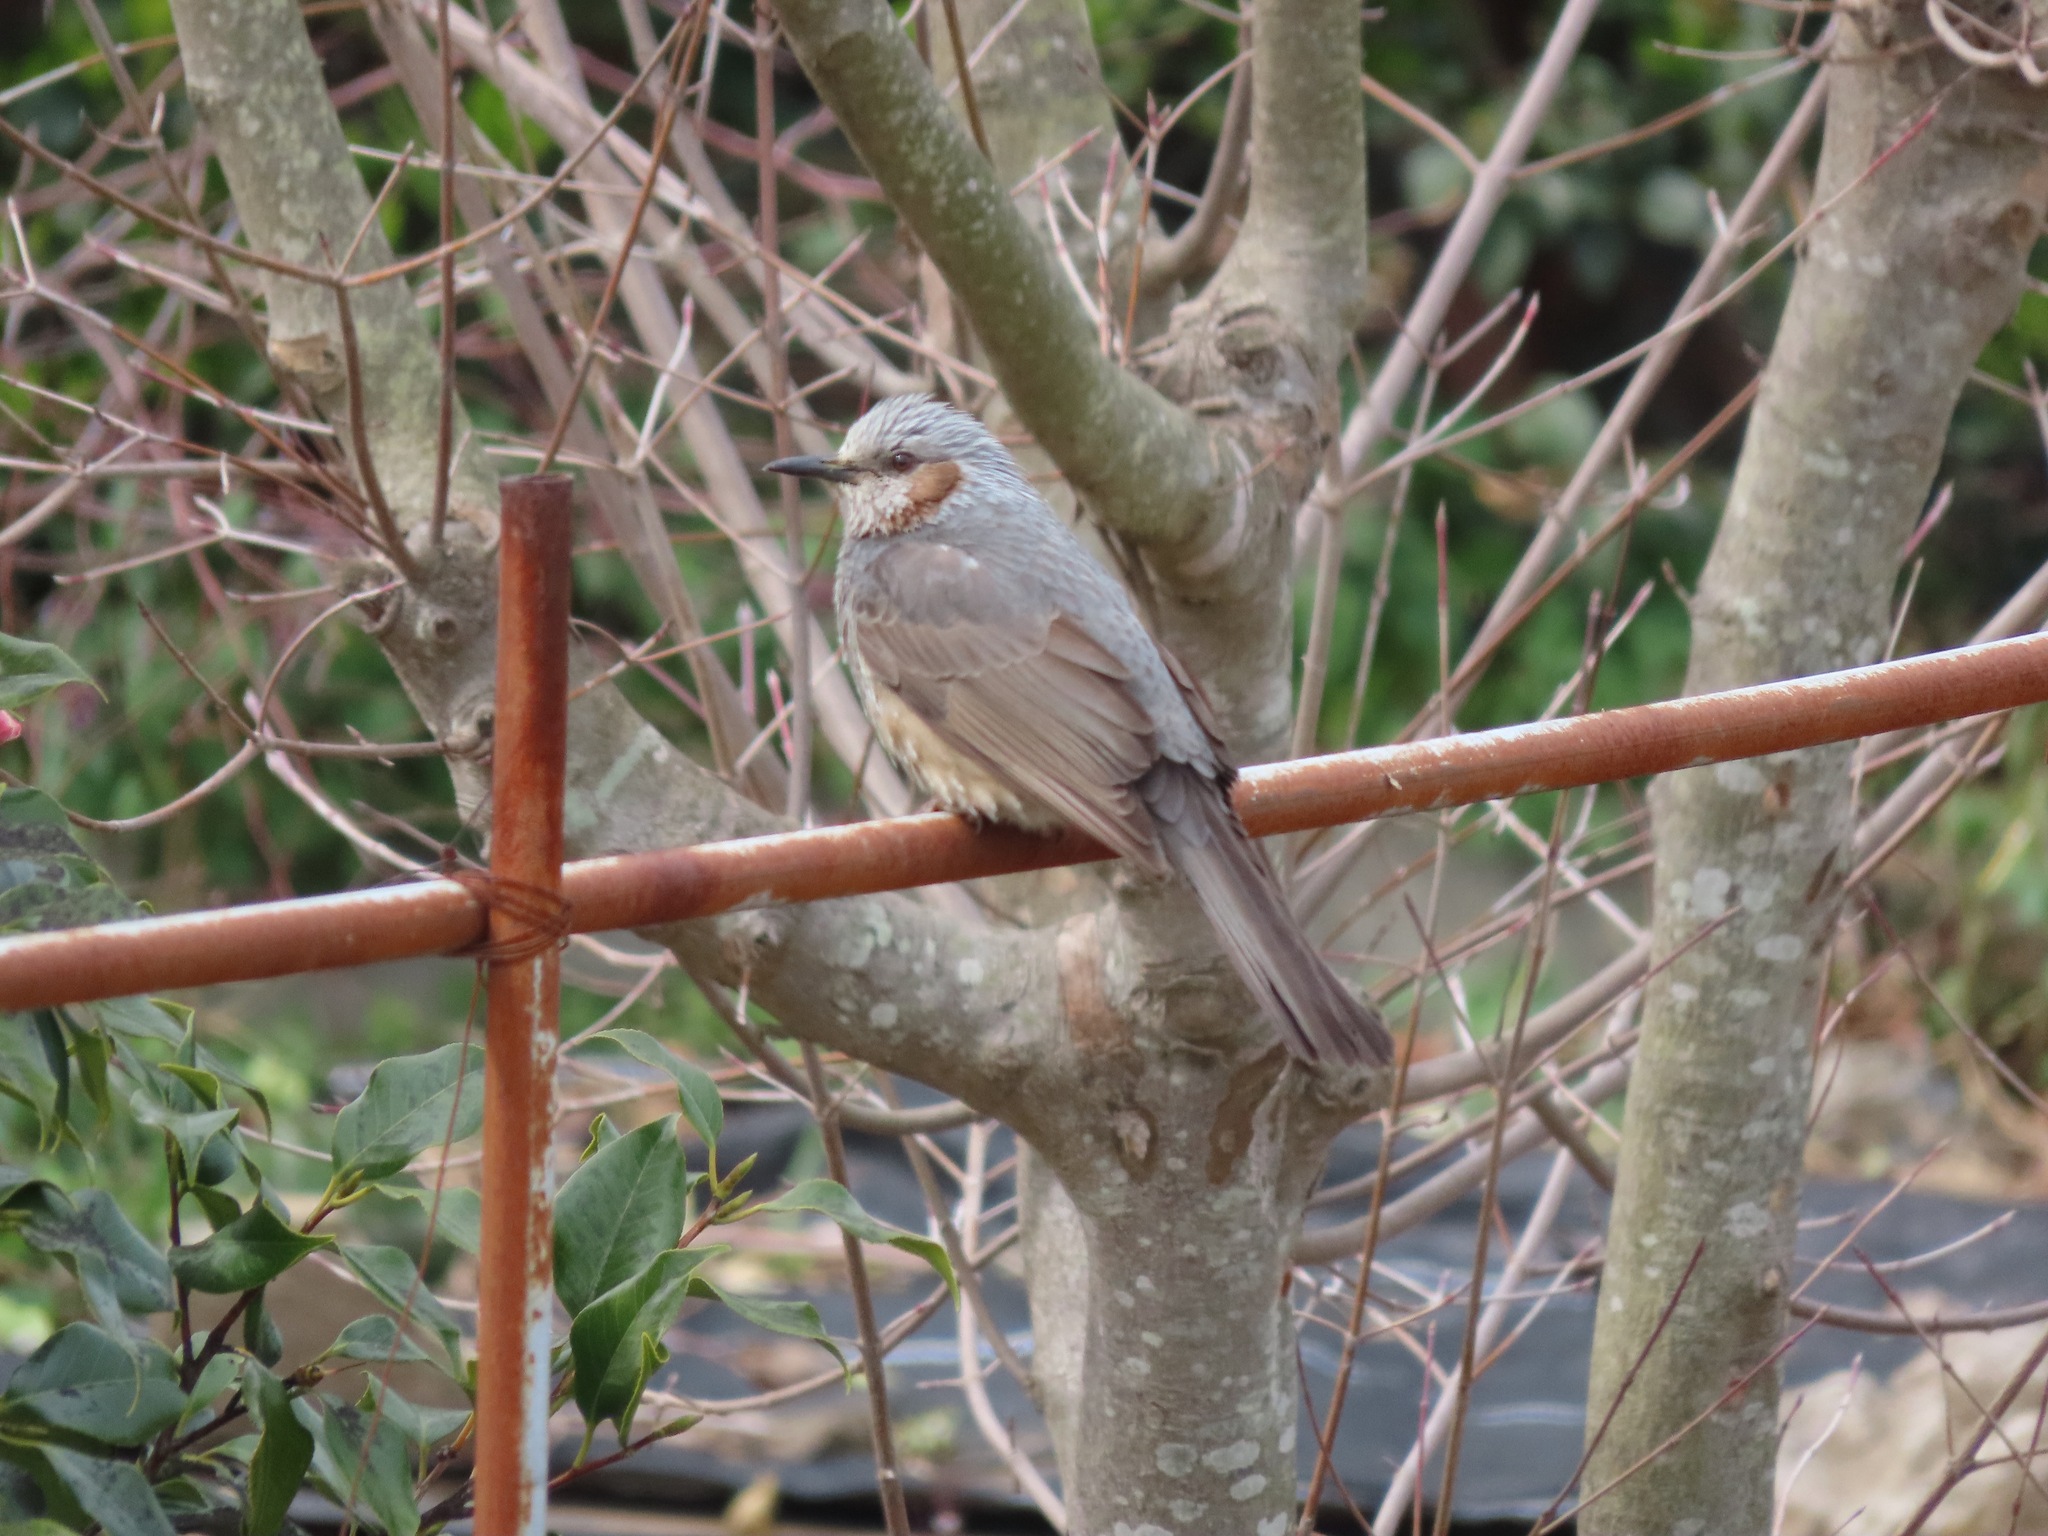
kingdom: Animalia
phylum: Chordata
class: Aves
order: Passeriformes
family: Pycnonotidae
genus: Hypsipetes
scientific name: Hypsipetes amaurotis
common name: Brown-eared bulbul
